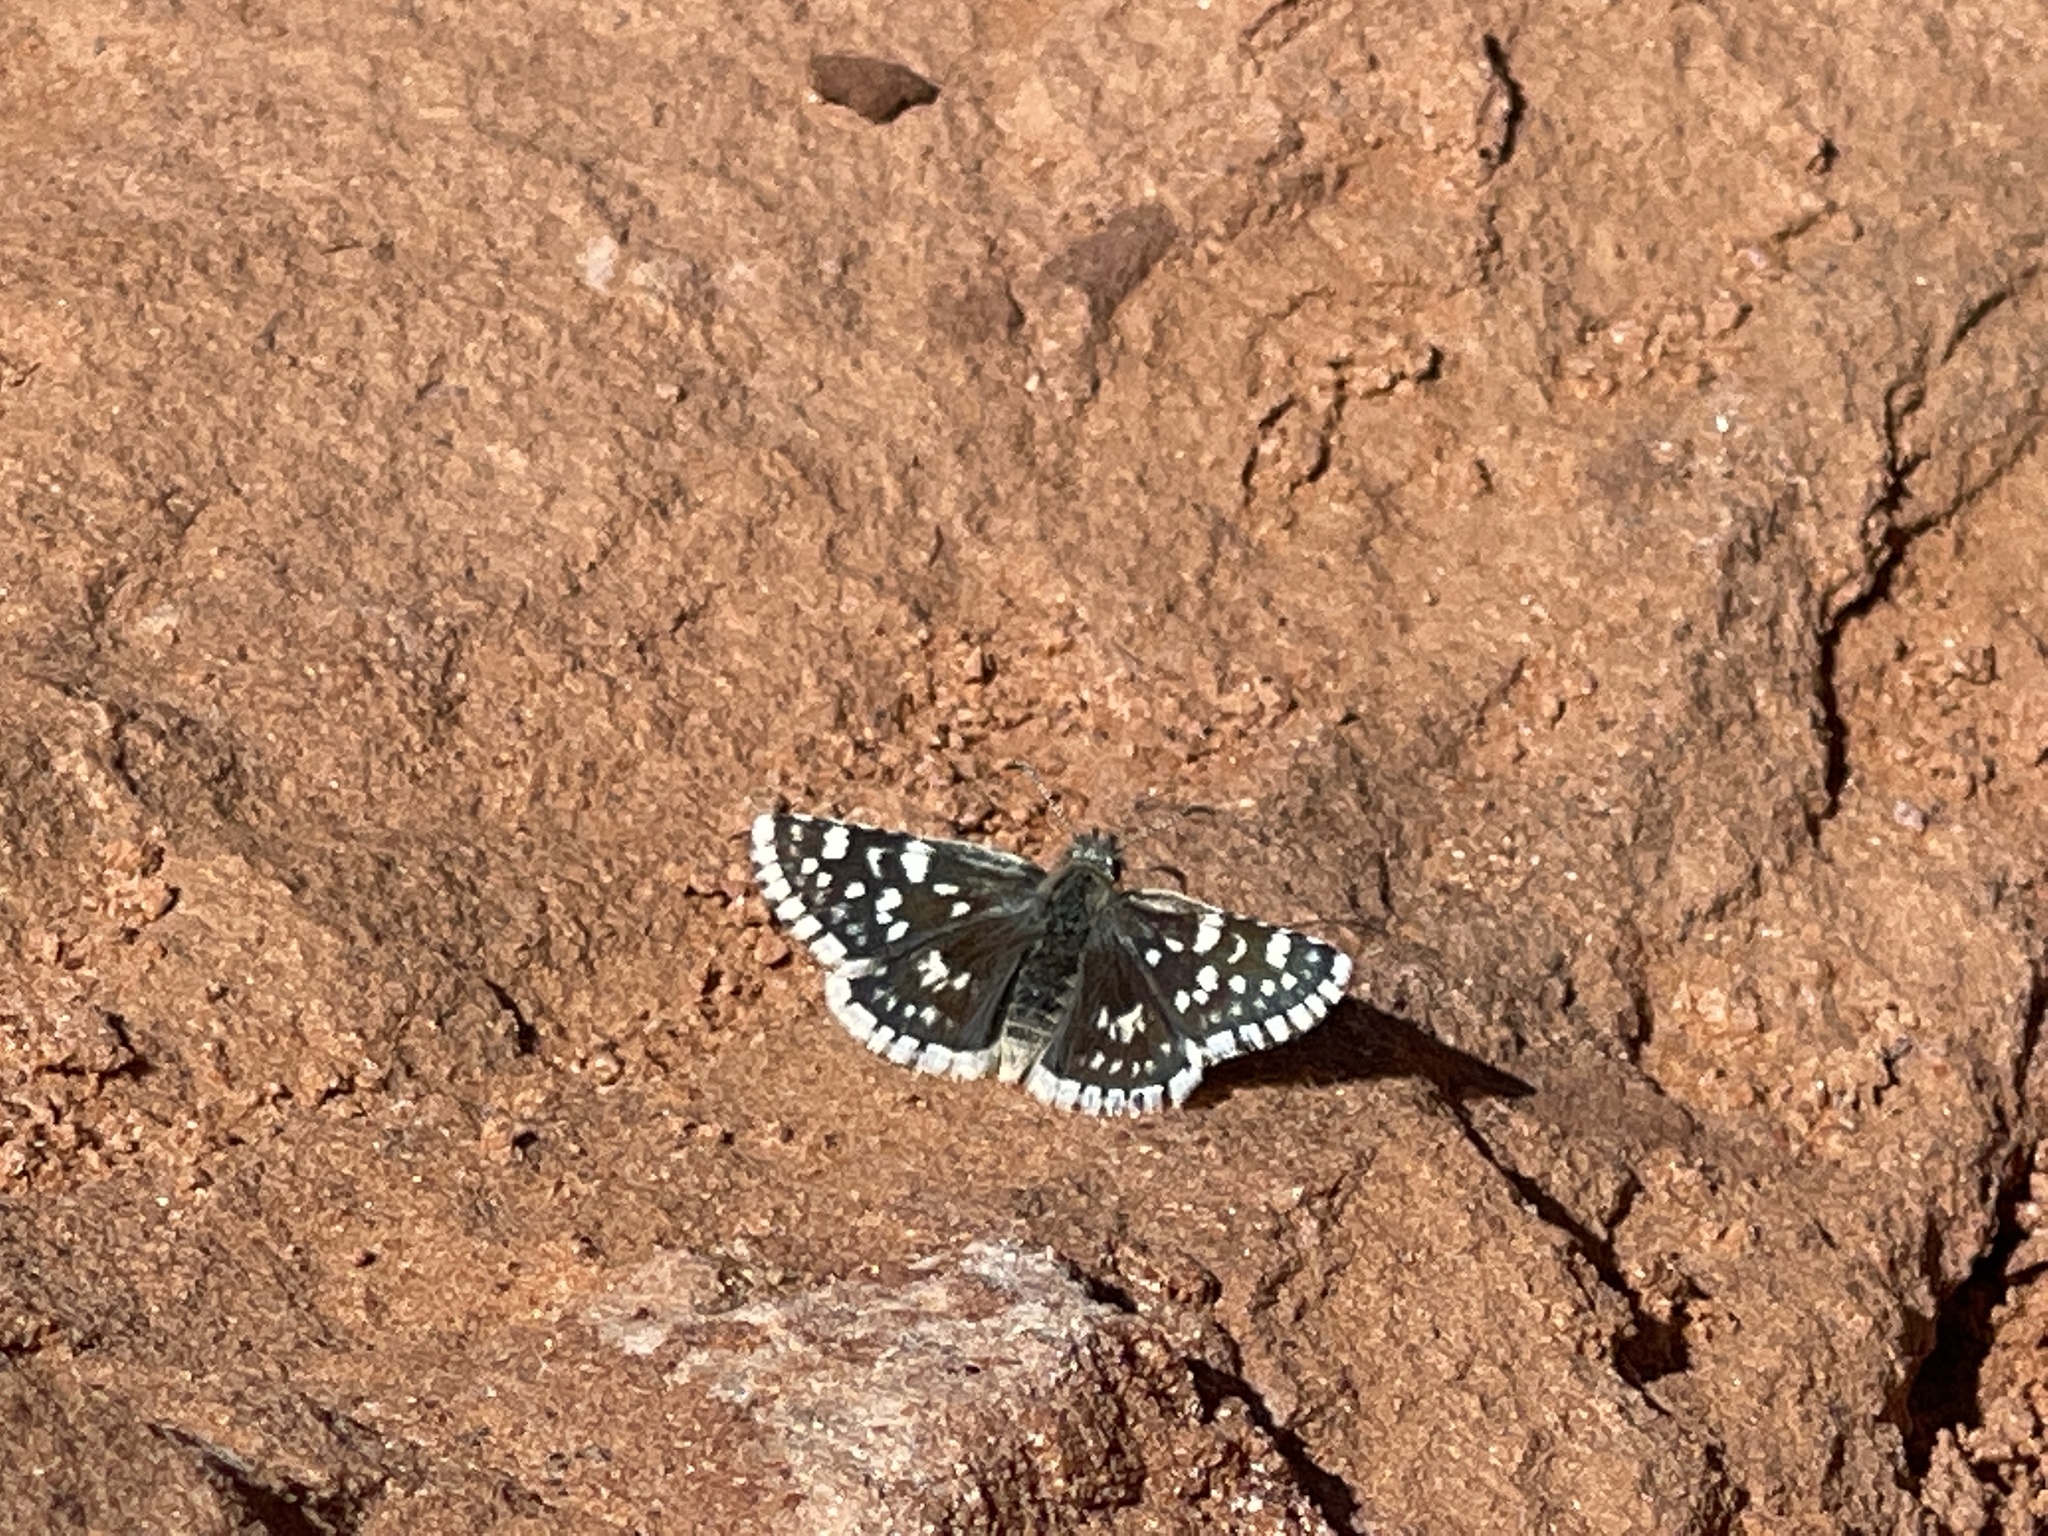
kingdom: Animalia
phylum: Arthropoda
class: Insecta
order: Lepidoptera
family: Hesperiidae
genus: Pyrgus
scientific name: Pyrgus scriptura
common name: Small checkered-skipper
